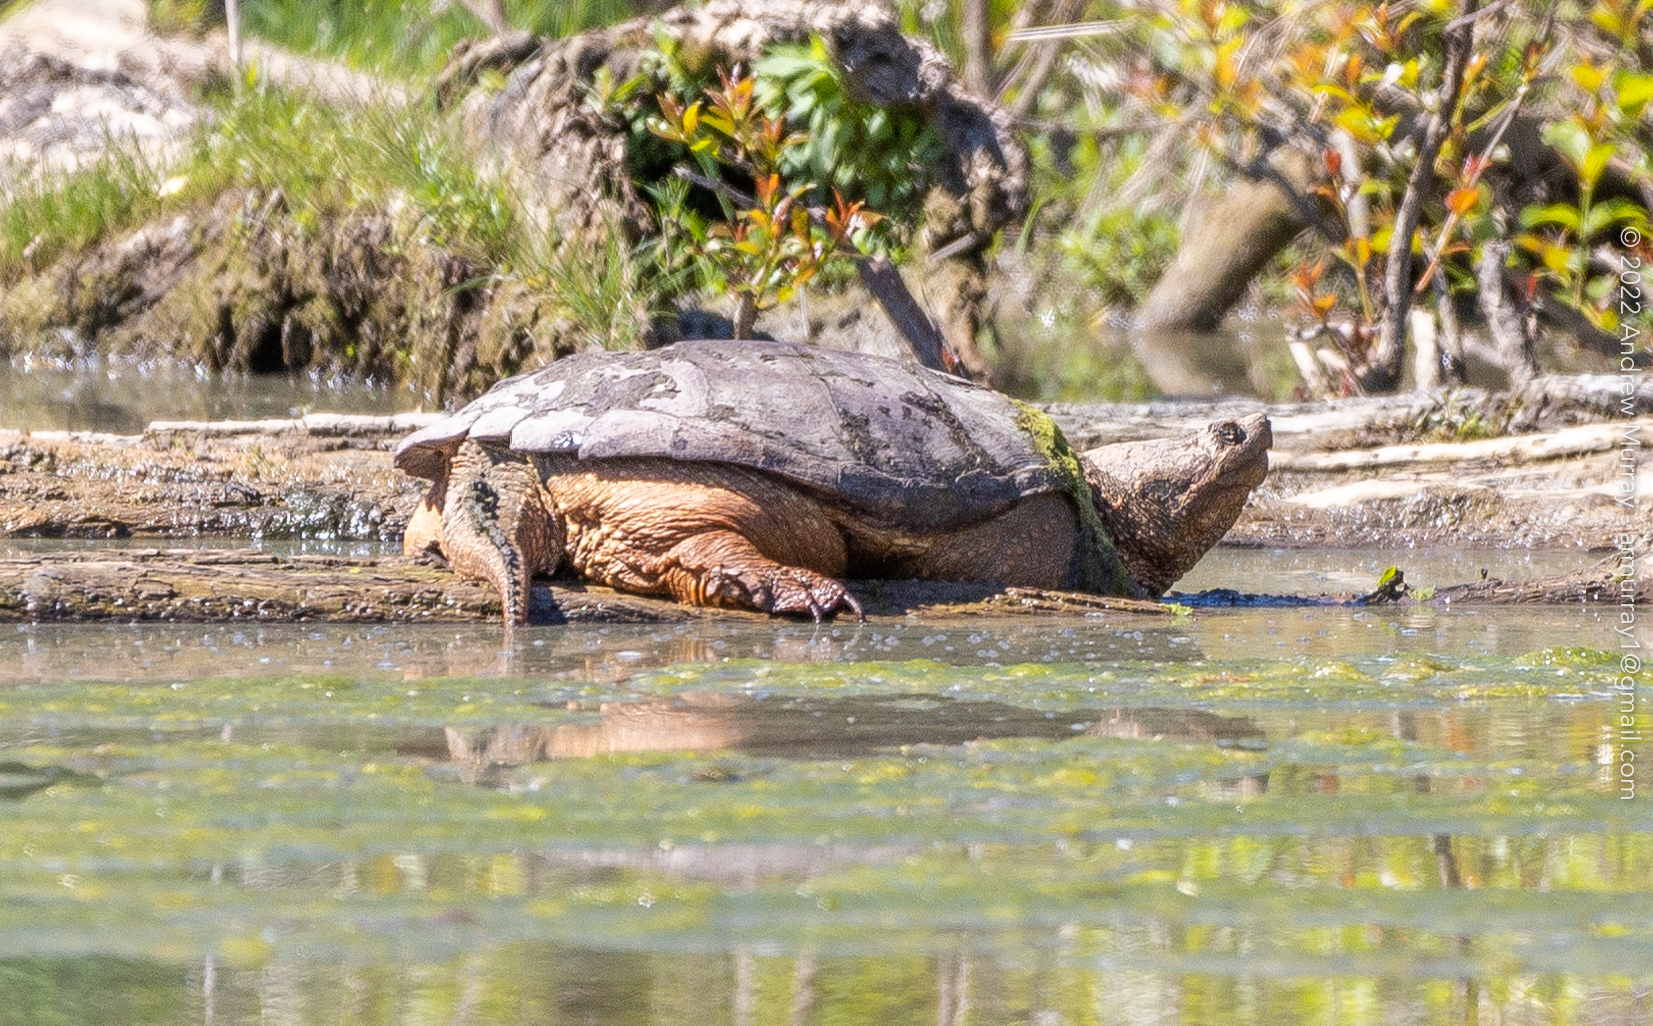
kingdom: Animalia
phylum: Chordata
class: Testudines
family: Chelydridae
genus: Chelydra
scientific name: Chelydra serpentina
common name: Common snapping turtle
